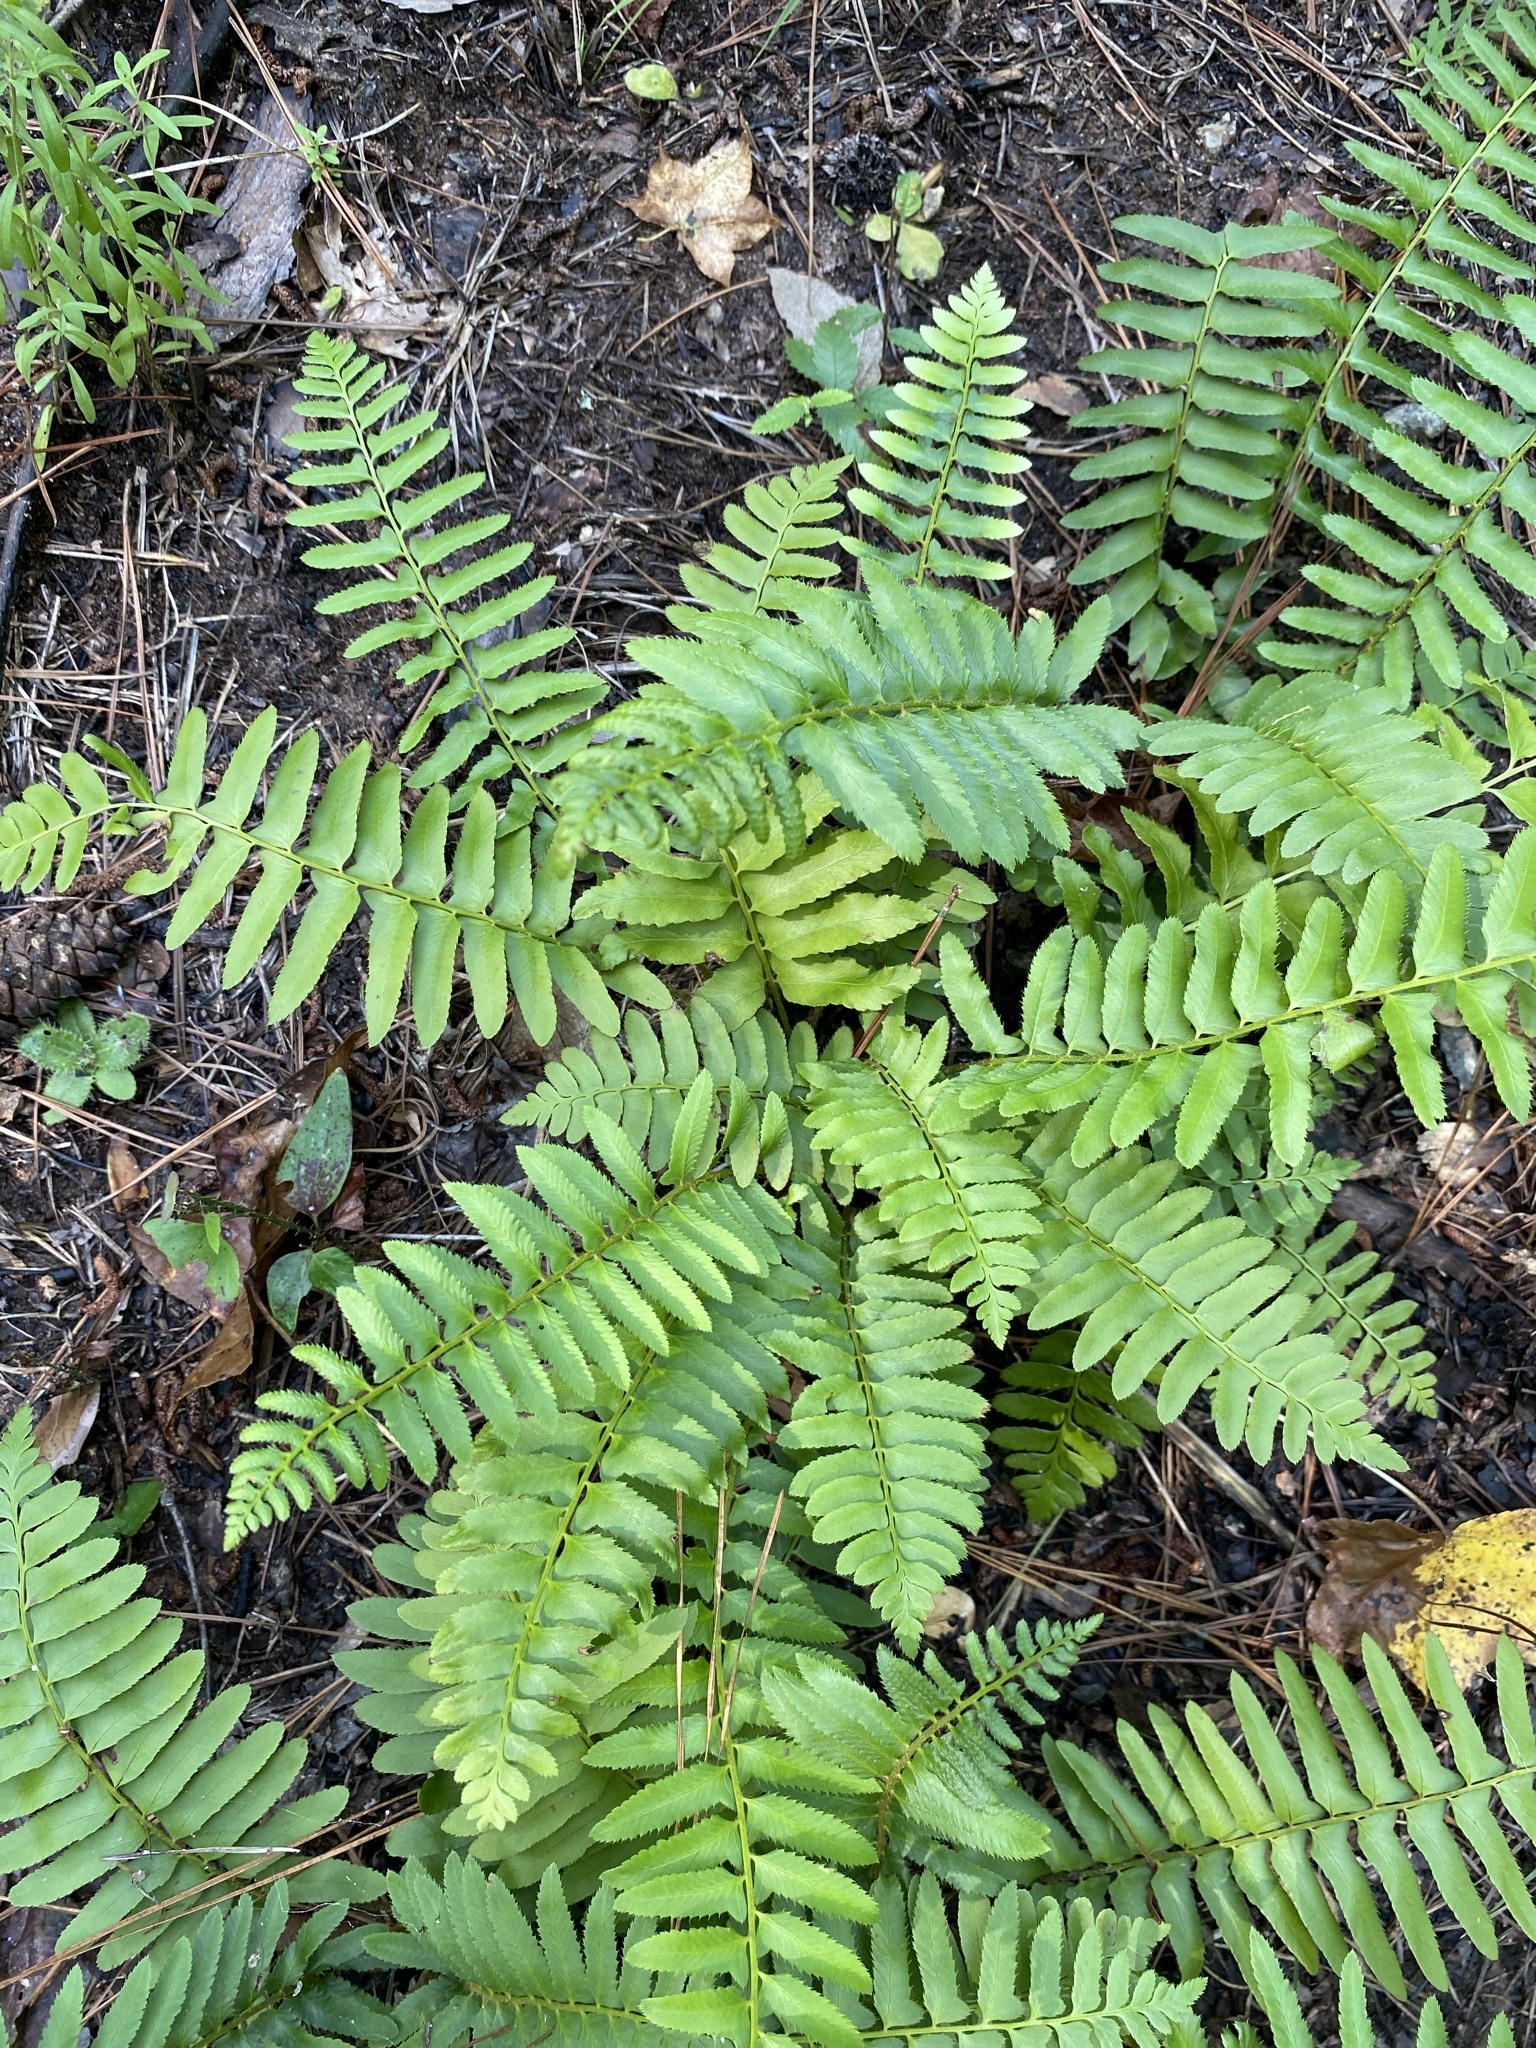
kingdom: Plantae
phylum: Tracheophyta
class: Polypodiopsida
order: Polypodiales
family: Dryopteridaceae
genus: Polystichum
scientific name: Polystichum acrostichoides
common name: Christmas fern
